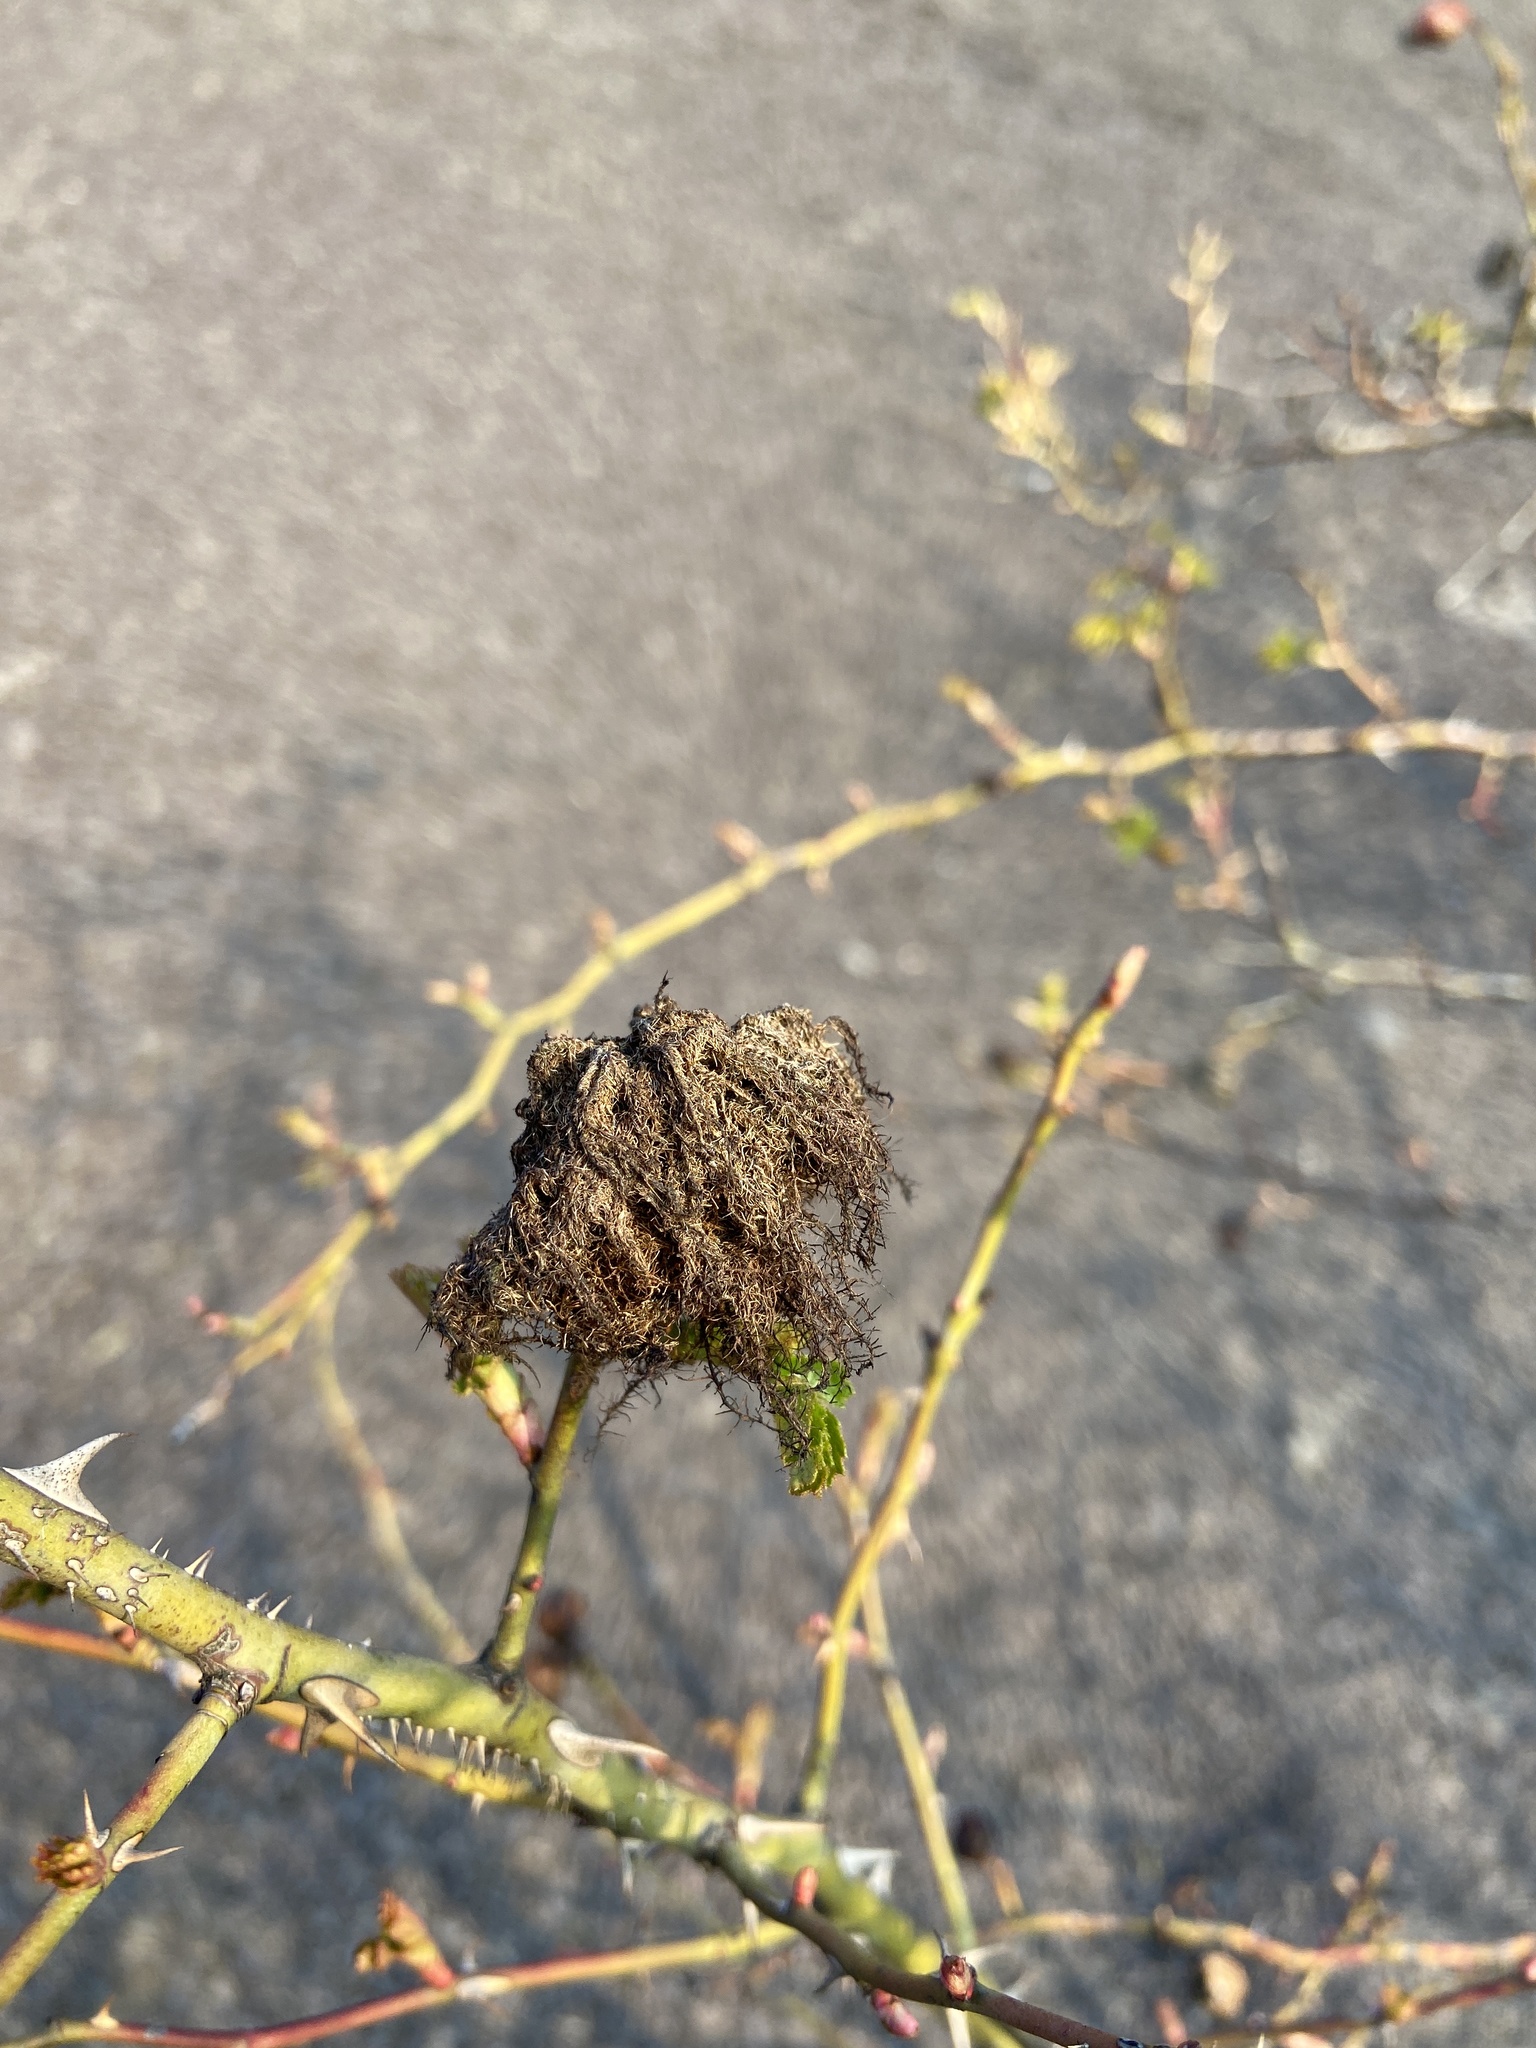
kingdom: Animalia
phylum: Arthropoda
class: Insecta
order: Hymenoptera
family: Cynipidae
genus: Diplolepis
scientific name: Diplolepis rosae
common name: Bedeguar gall
